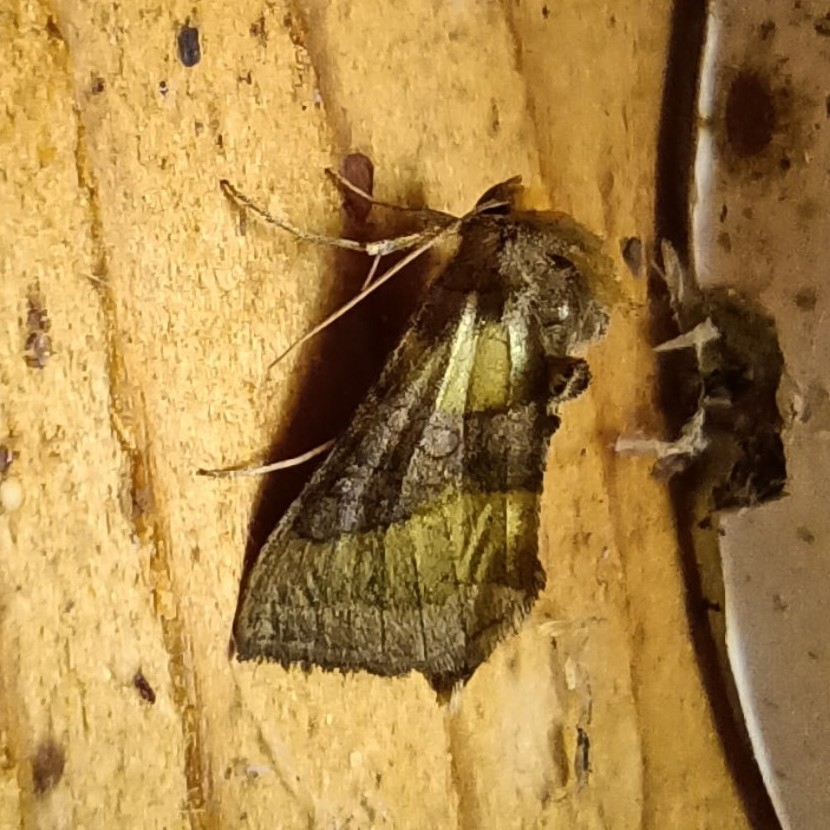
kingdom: Animalia
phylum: Arthropoda
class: Insecta
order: Lepidoptera
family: Noctuidae
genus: Diachrysia
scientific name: Diachrysia chrysitis
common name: Burnished brass
